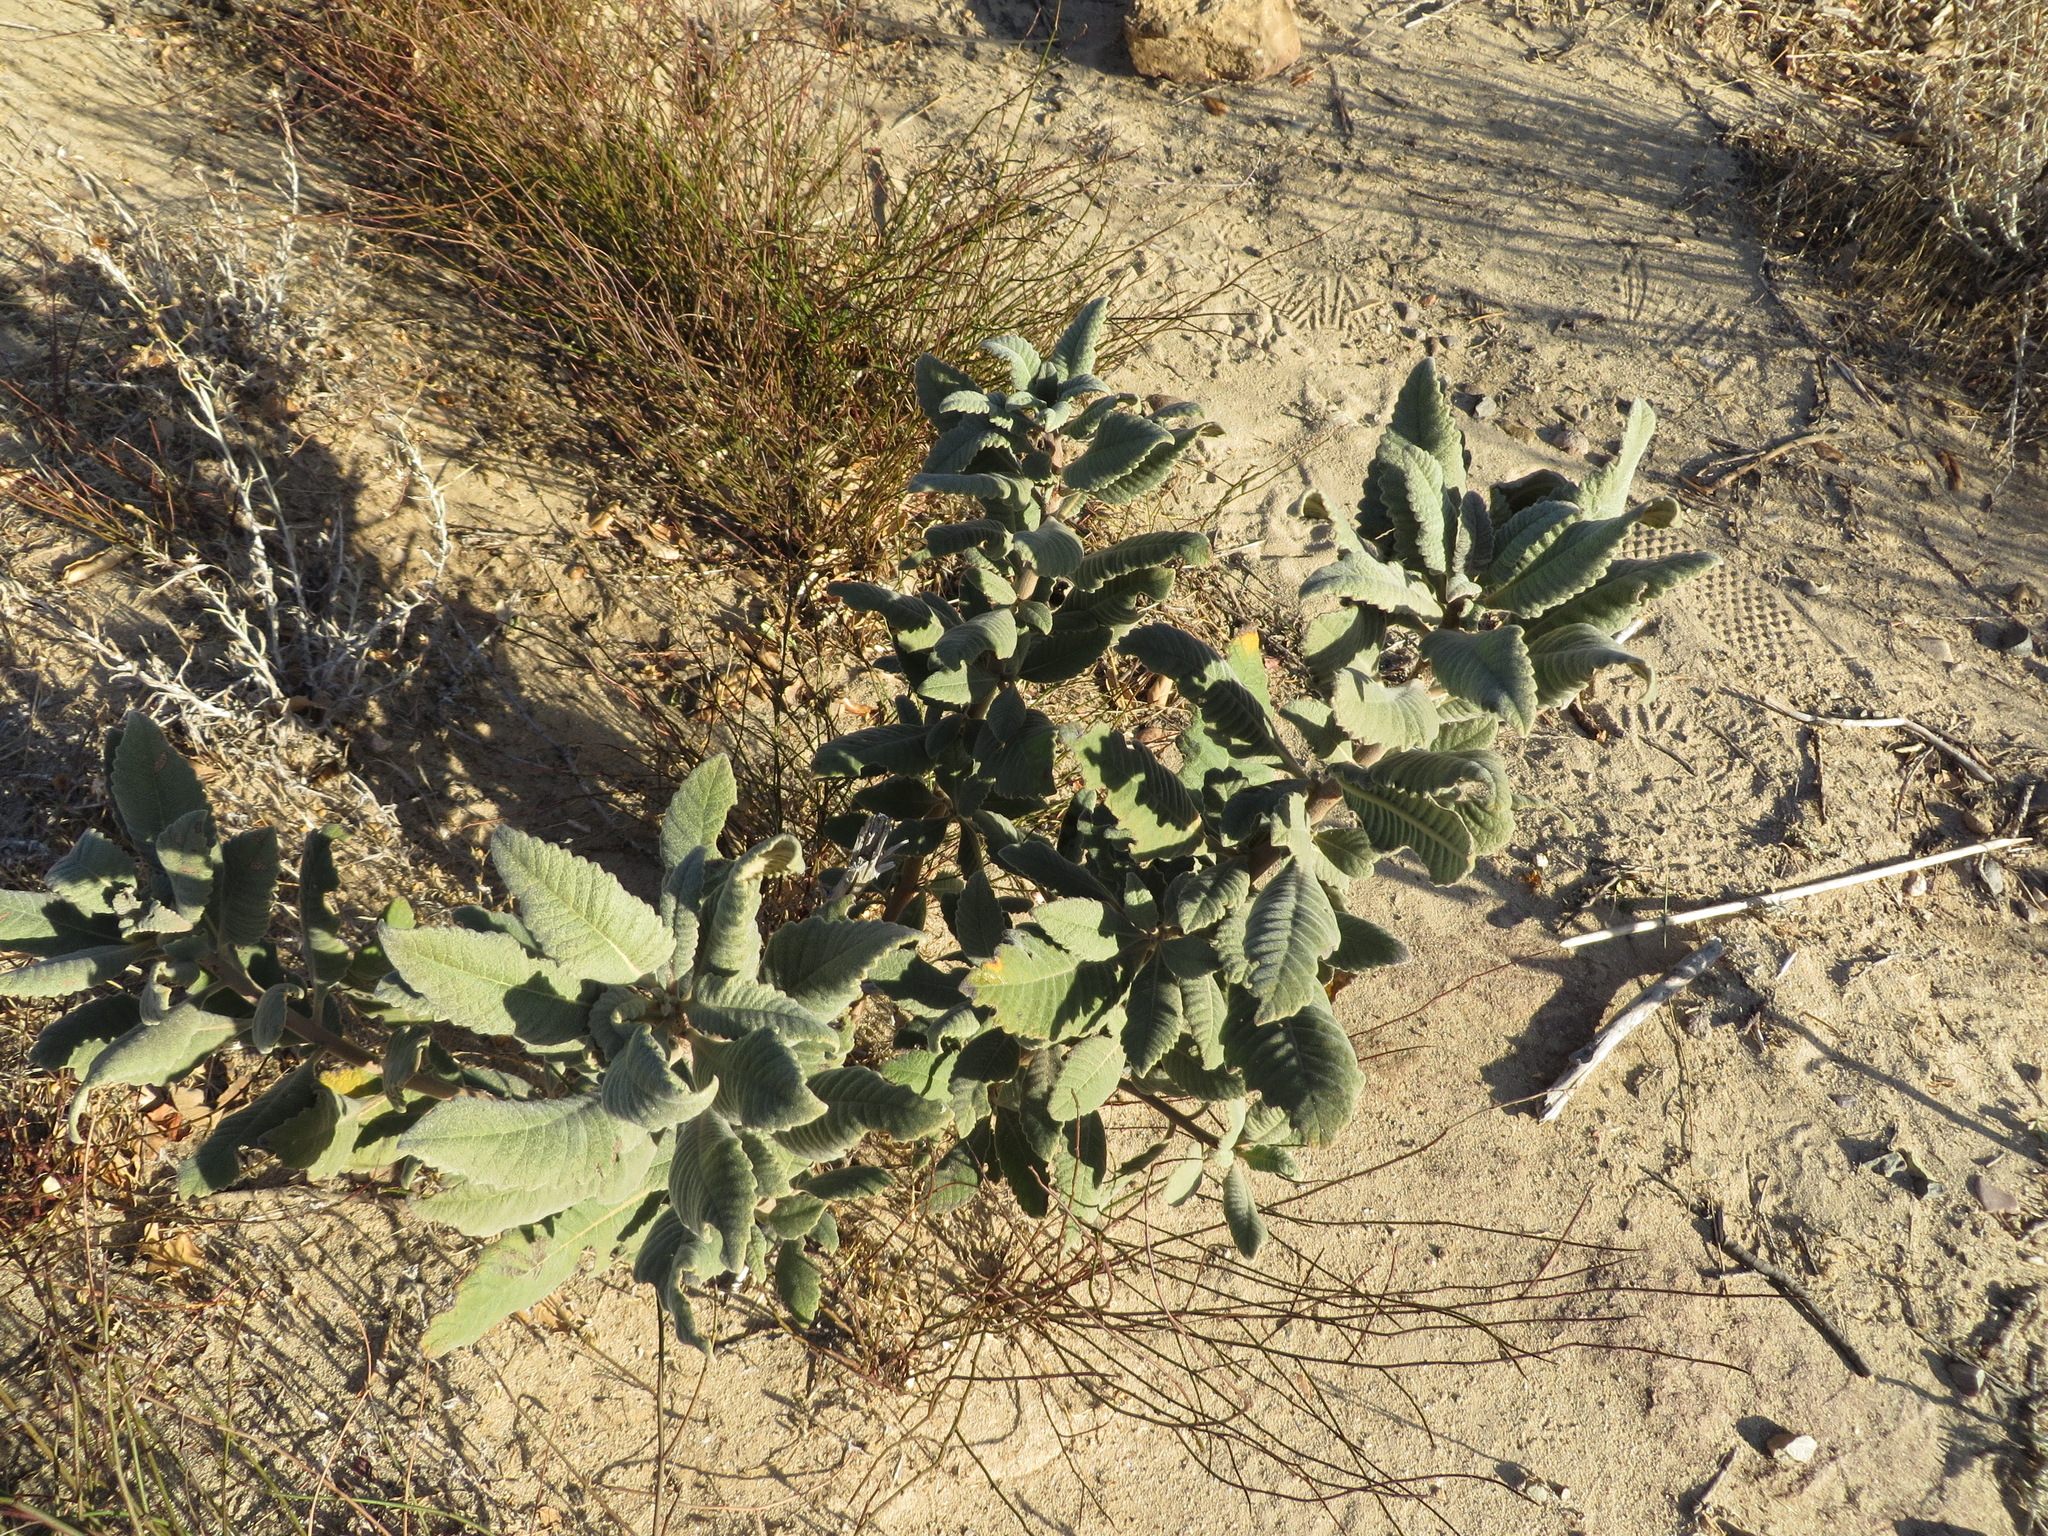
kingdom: Plantae
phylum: Tracheophyta
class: Magnoliopsida
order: Boraginales
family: Namaceae
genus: Eriodictyon
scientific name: Eriodictyon crassifolium
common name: Thick-leaf yerba-santa
